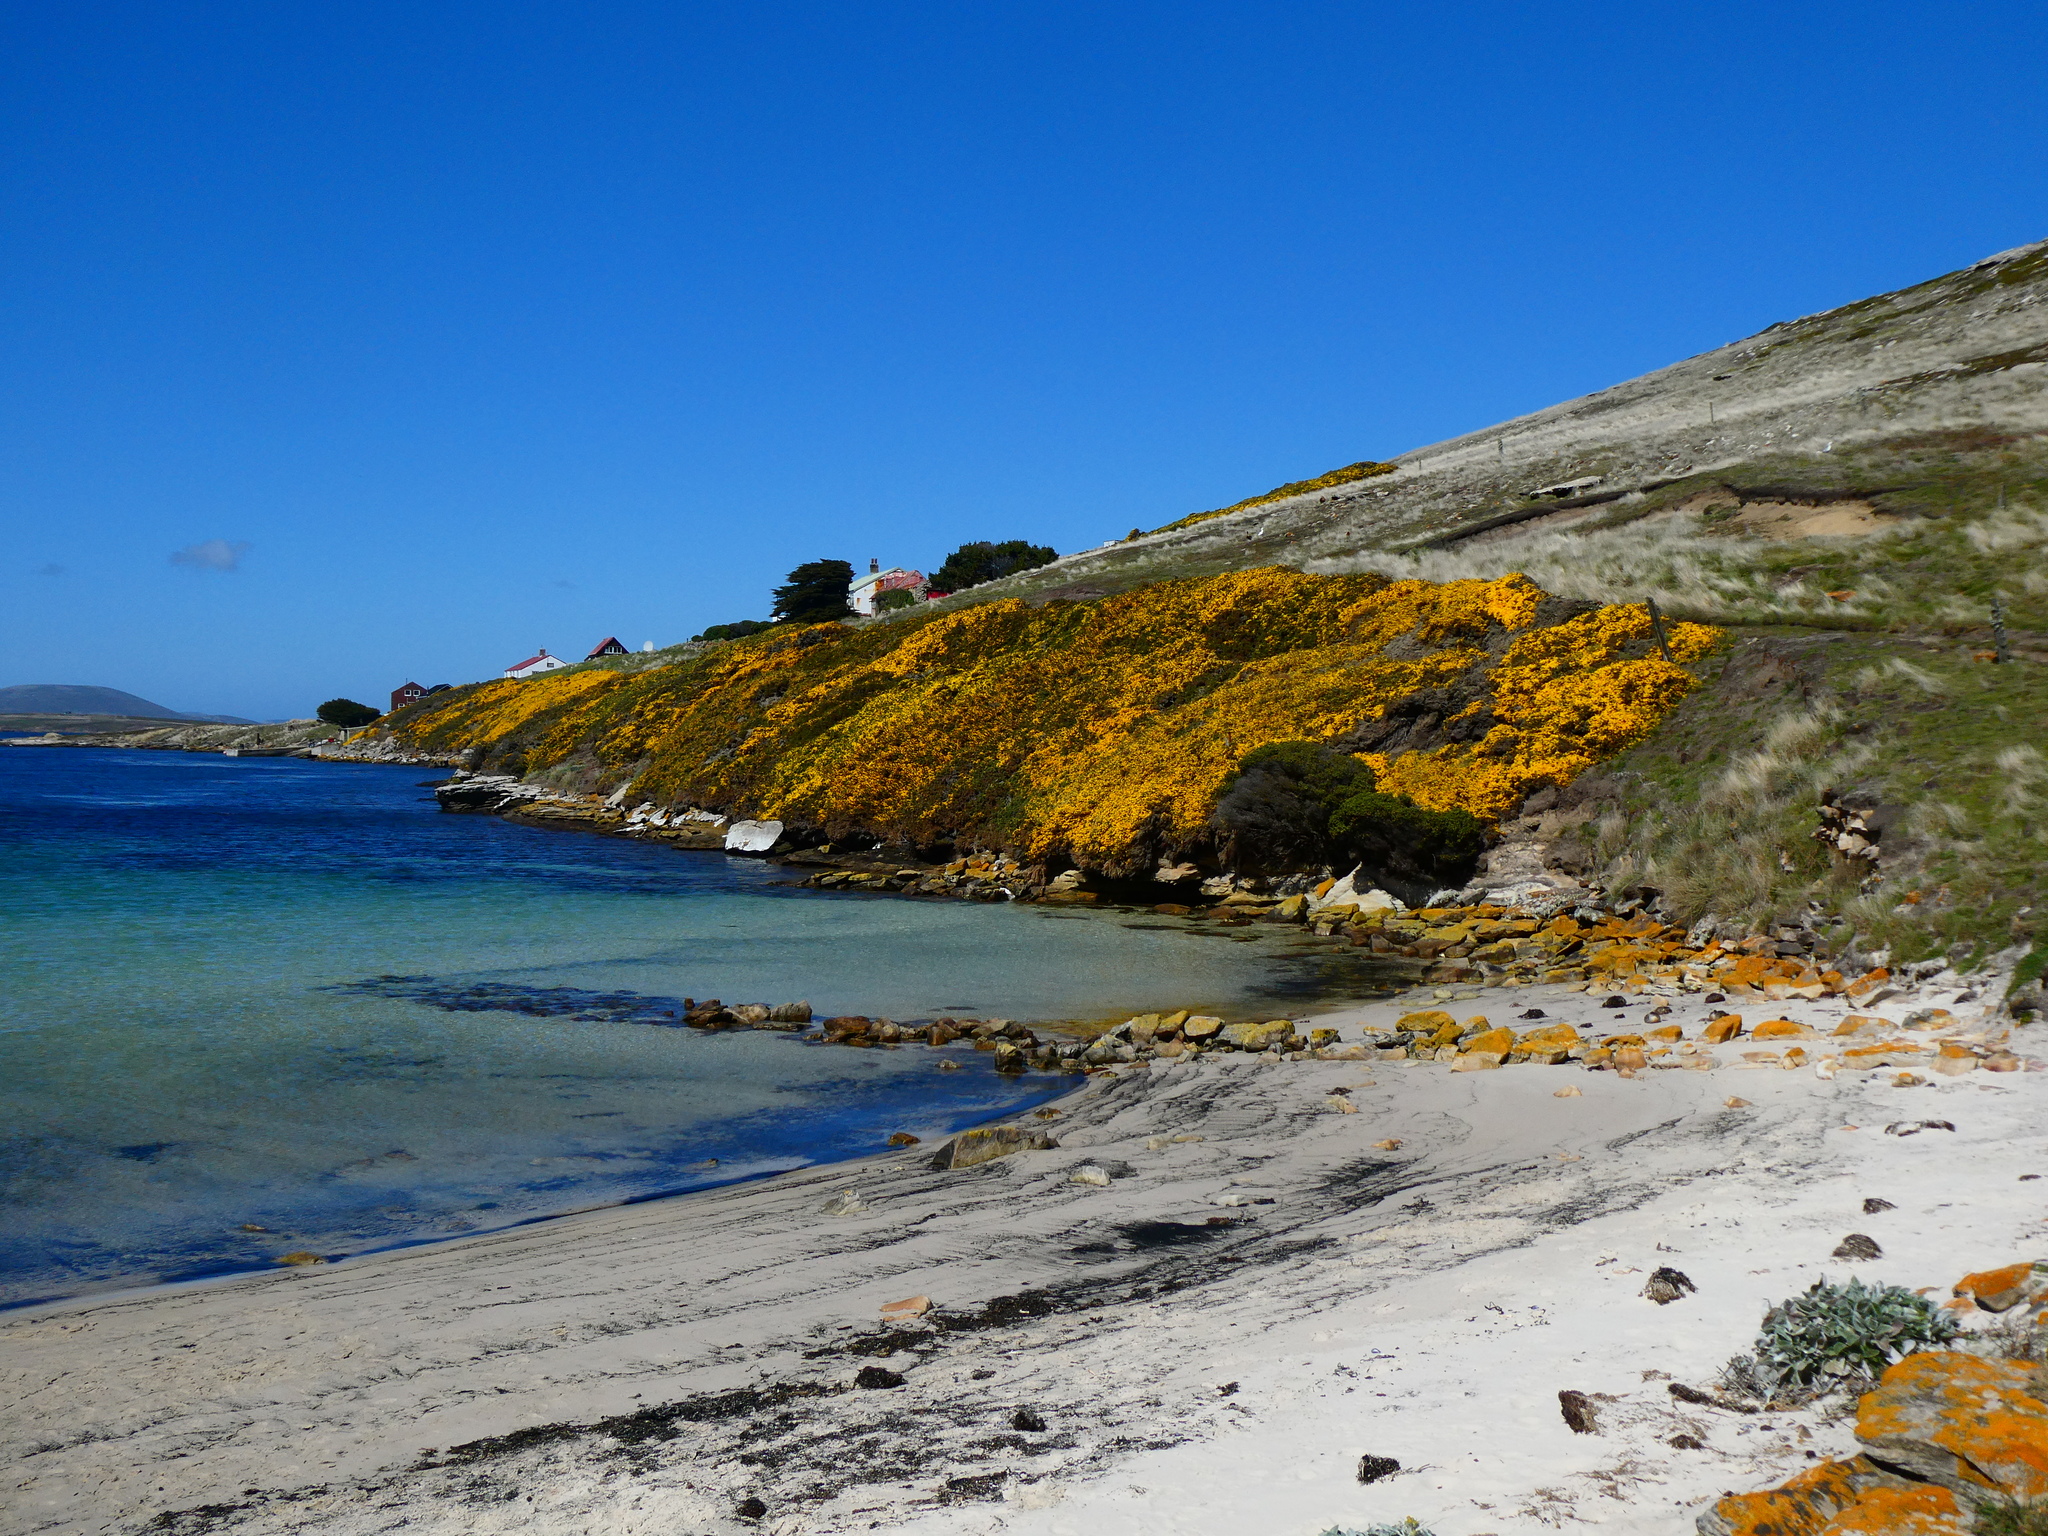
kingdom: Plantae
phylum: Tracheophyta
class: Magnoliopsida
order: Fabales
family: Fabaceae
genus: Ulex
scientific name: Ulex europaeus
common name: Common gorse
